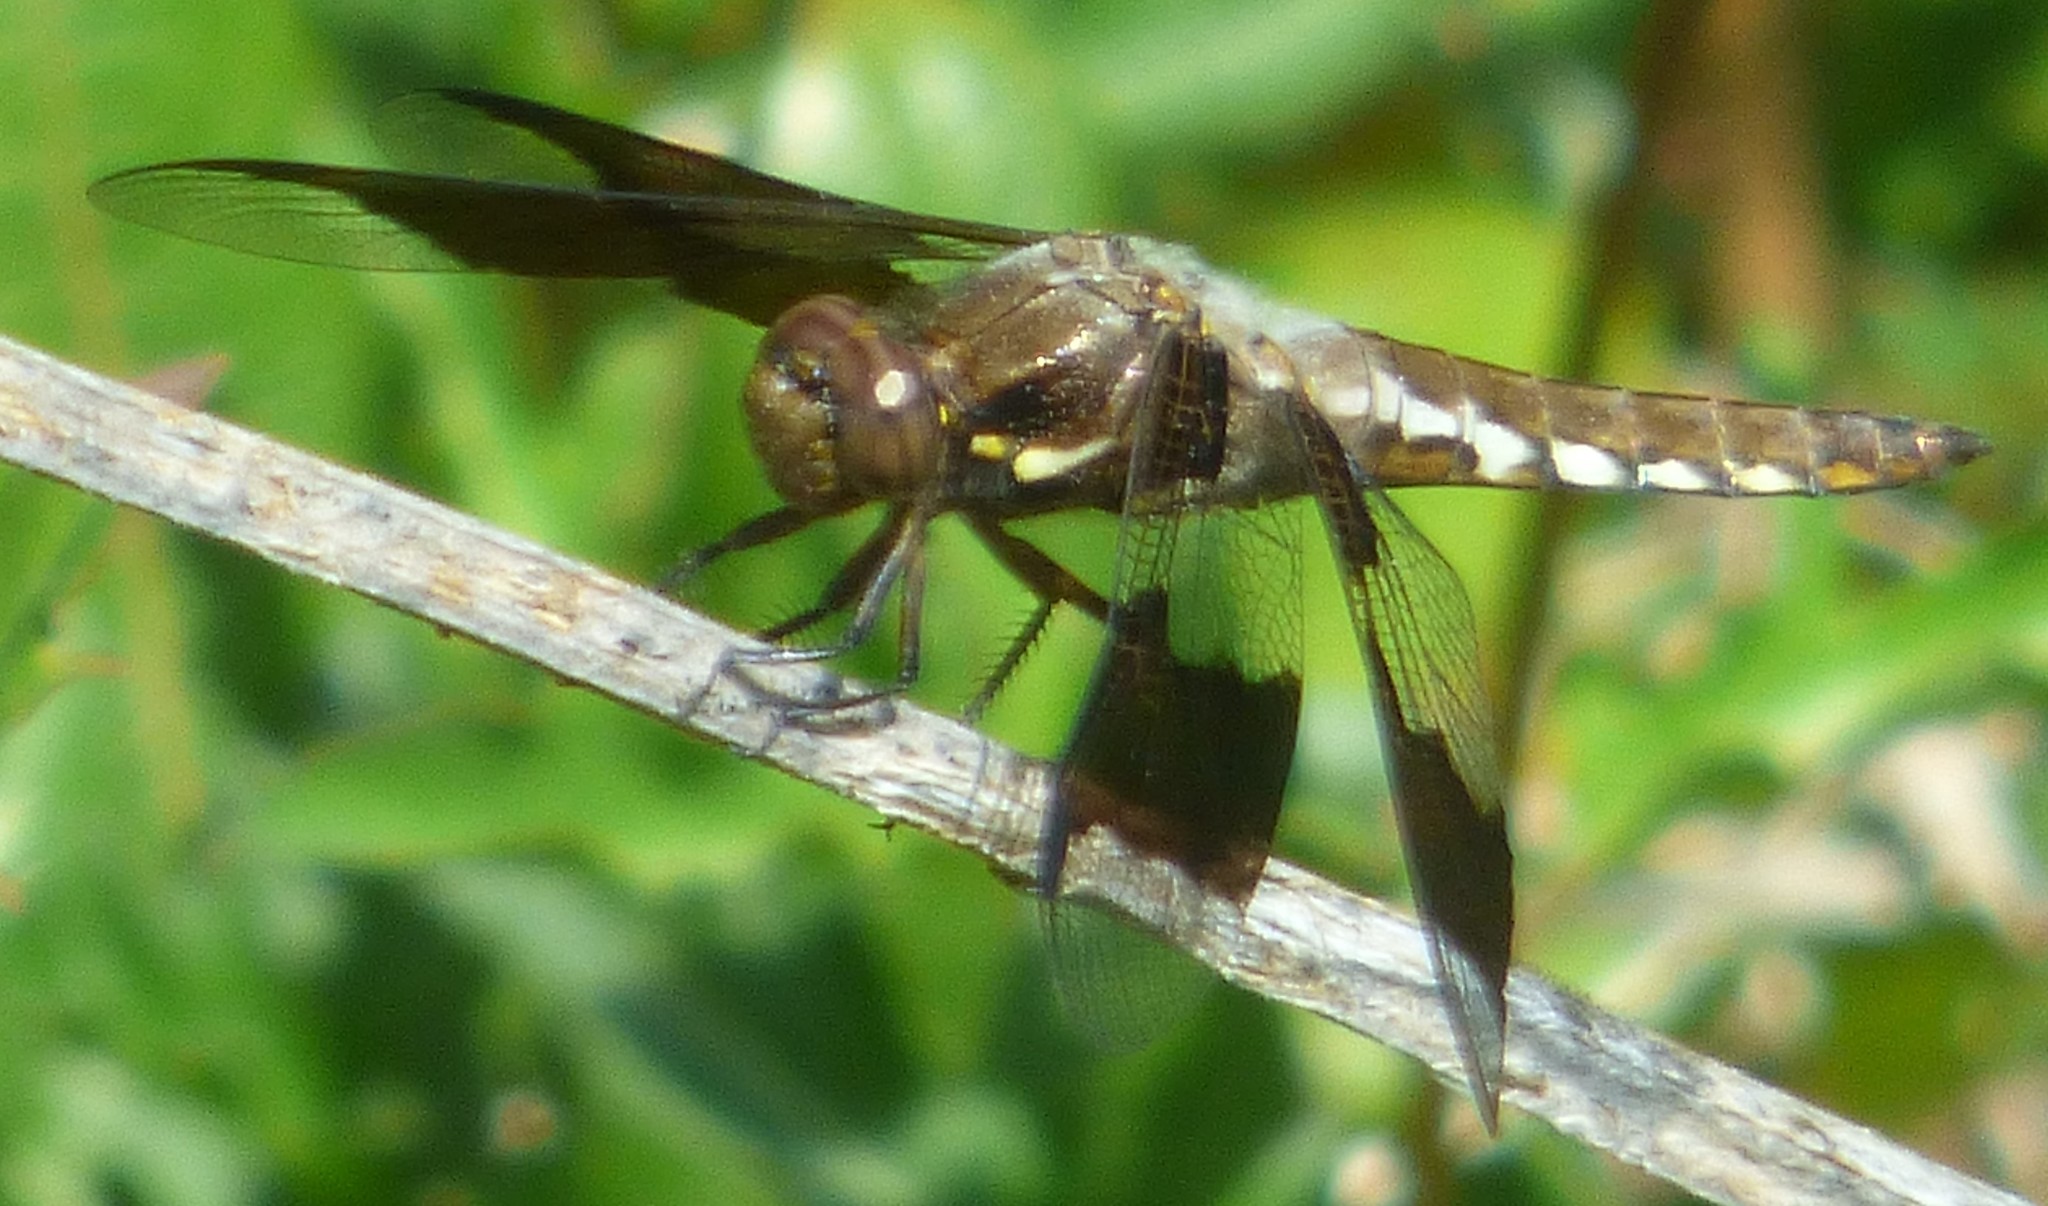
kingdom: Animalia
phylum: Arthropoda
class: Insecta
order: Odonata
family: Libellulidae
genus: Plathemis
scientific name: Plathemis lydia
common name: Common whitetail
